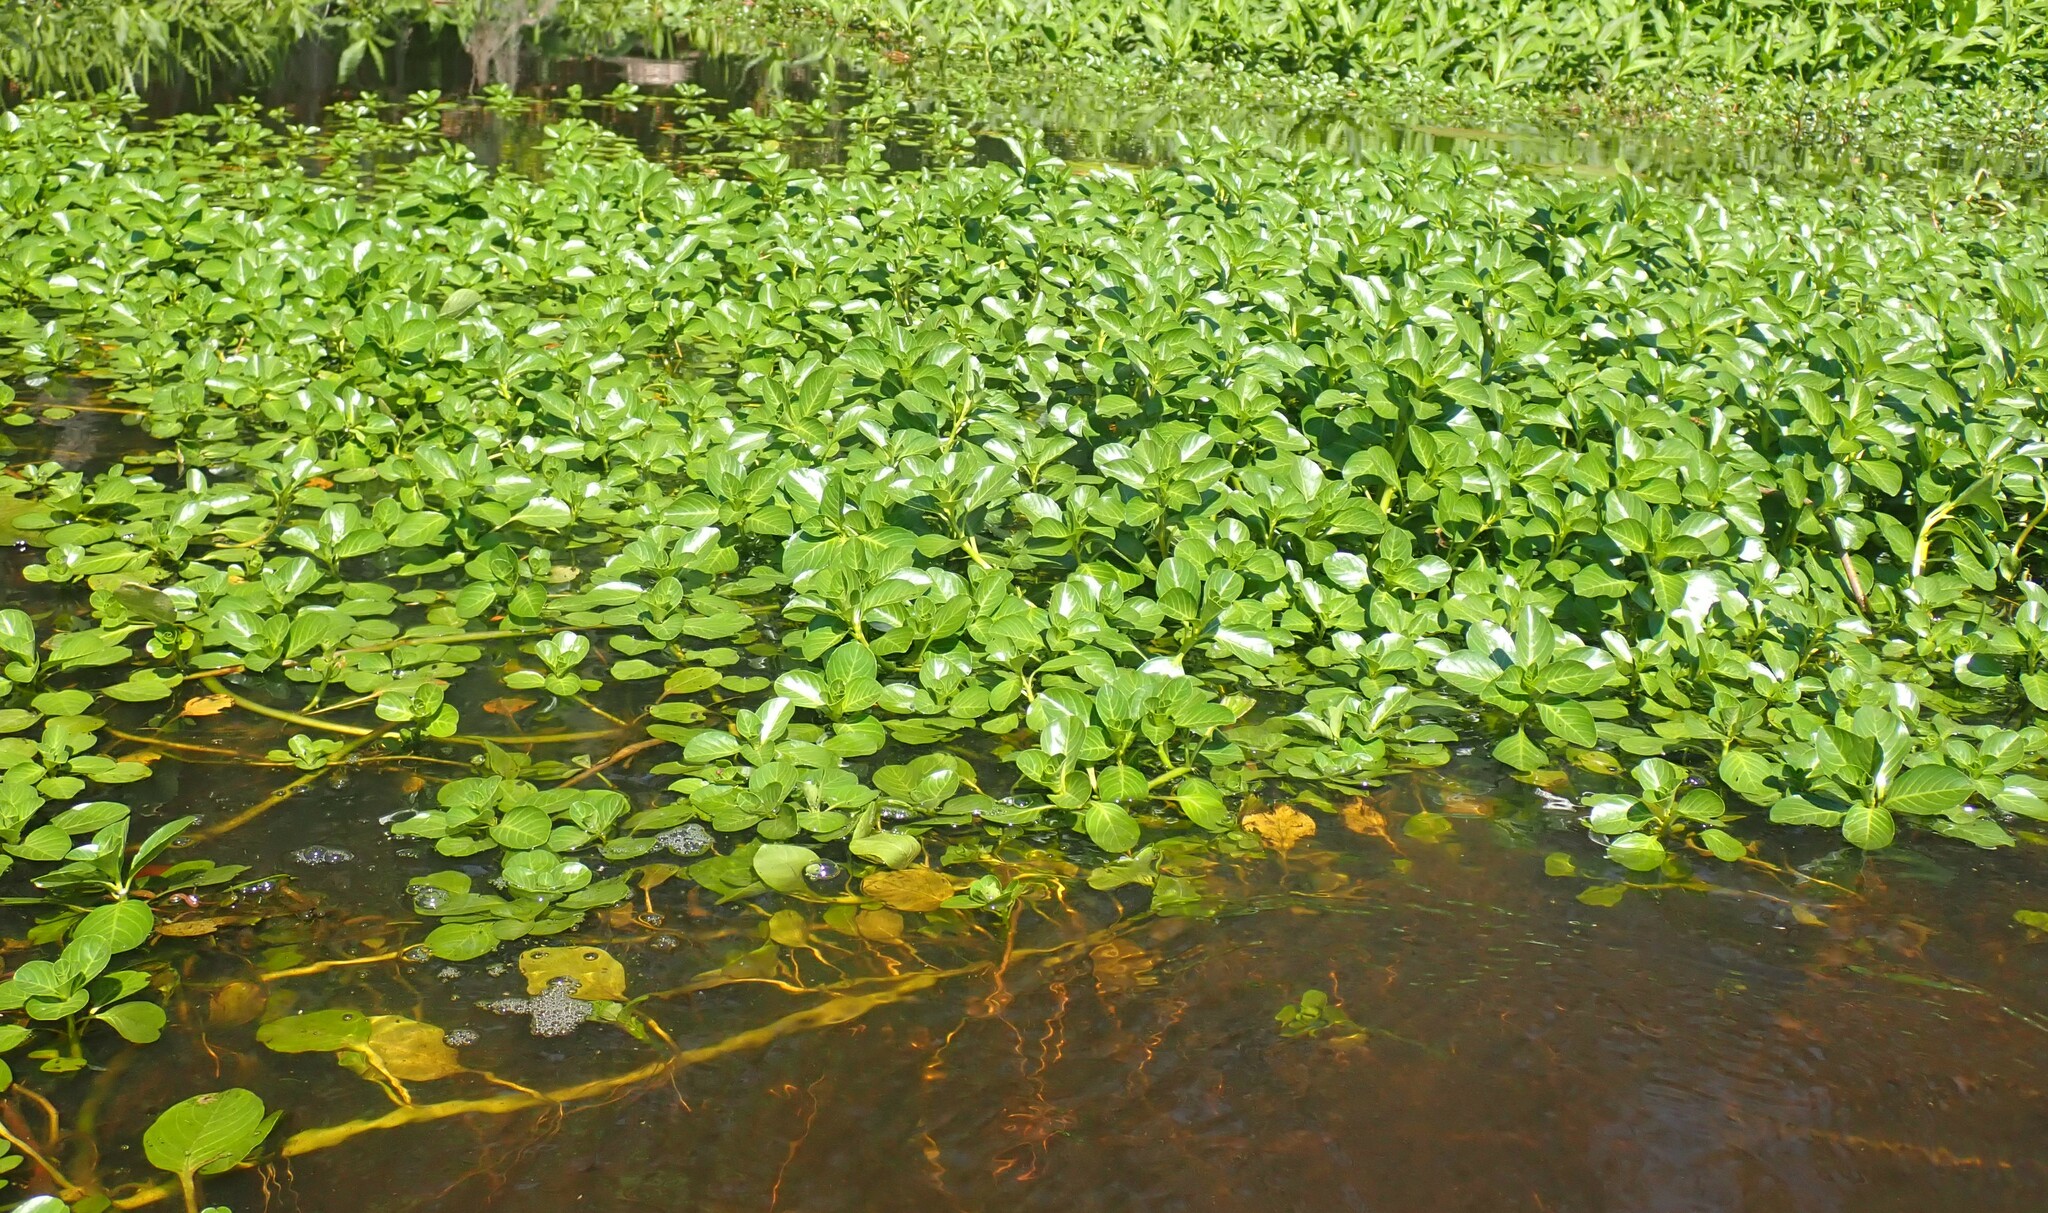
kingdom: Plantae
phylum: Tracheophyta
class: Magnoliopsida
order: Myrtales
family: Onagraceae
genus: Ludwigia
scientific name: Ludwigia peploides
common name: Floating primrose-willow
